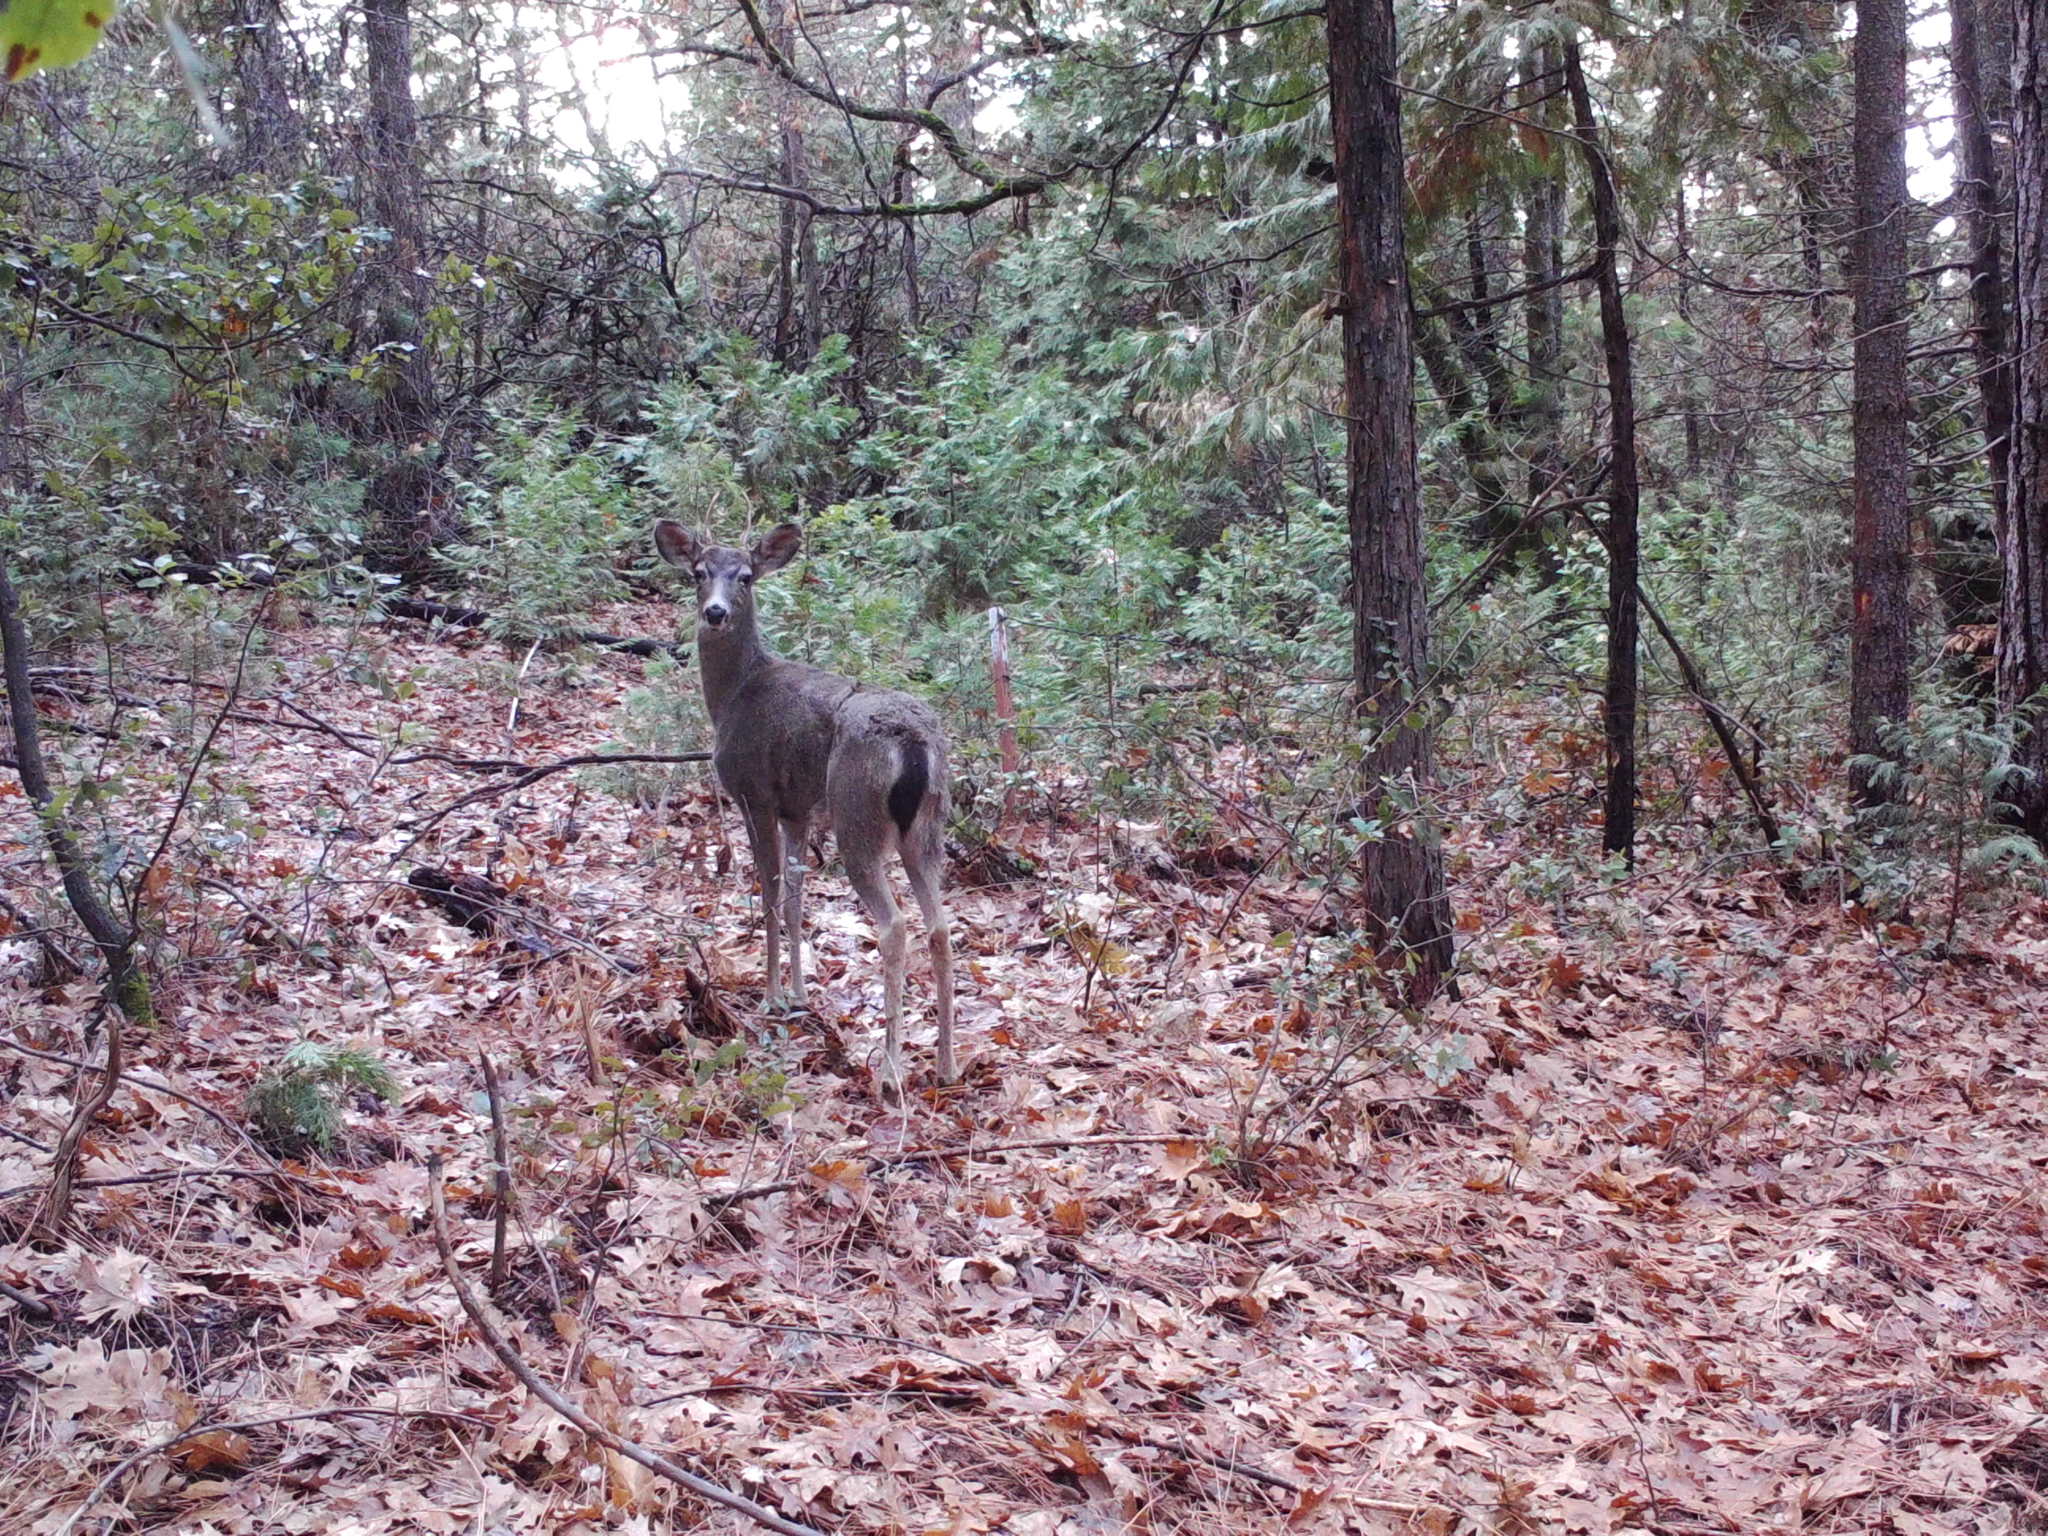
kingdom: Animalia
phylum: Chordata
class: Mammalia
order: Artiodactyla
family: Cervidae
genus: Odocoileus
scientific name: Odocoileus hemionus
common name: Mule deer
